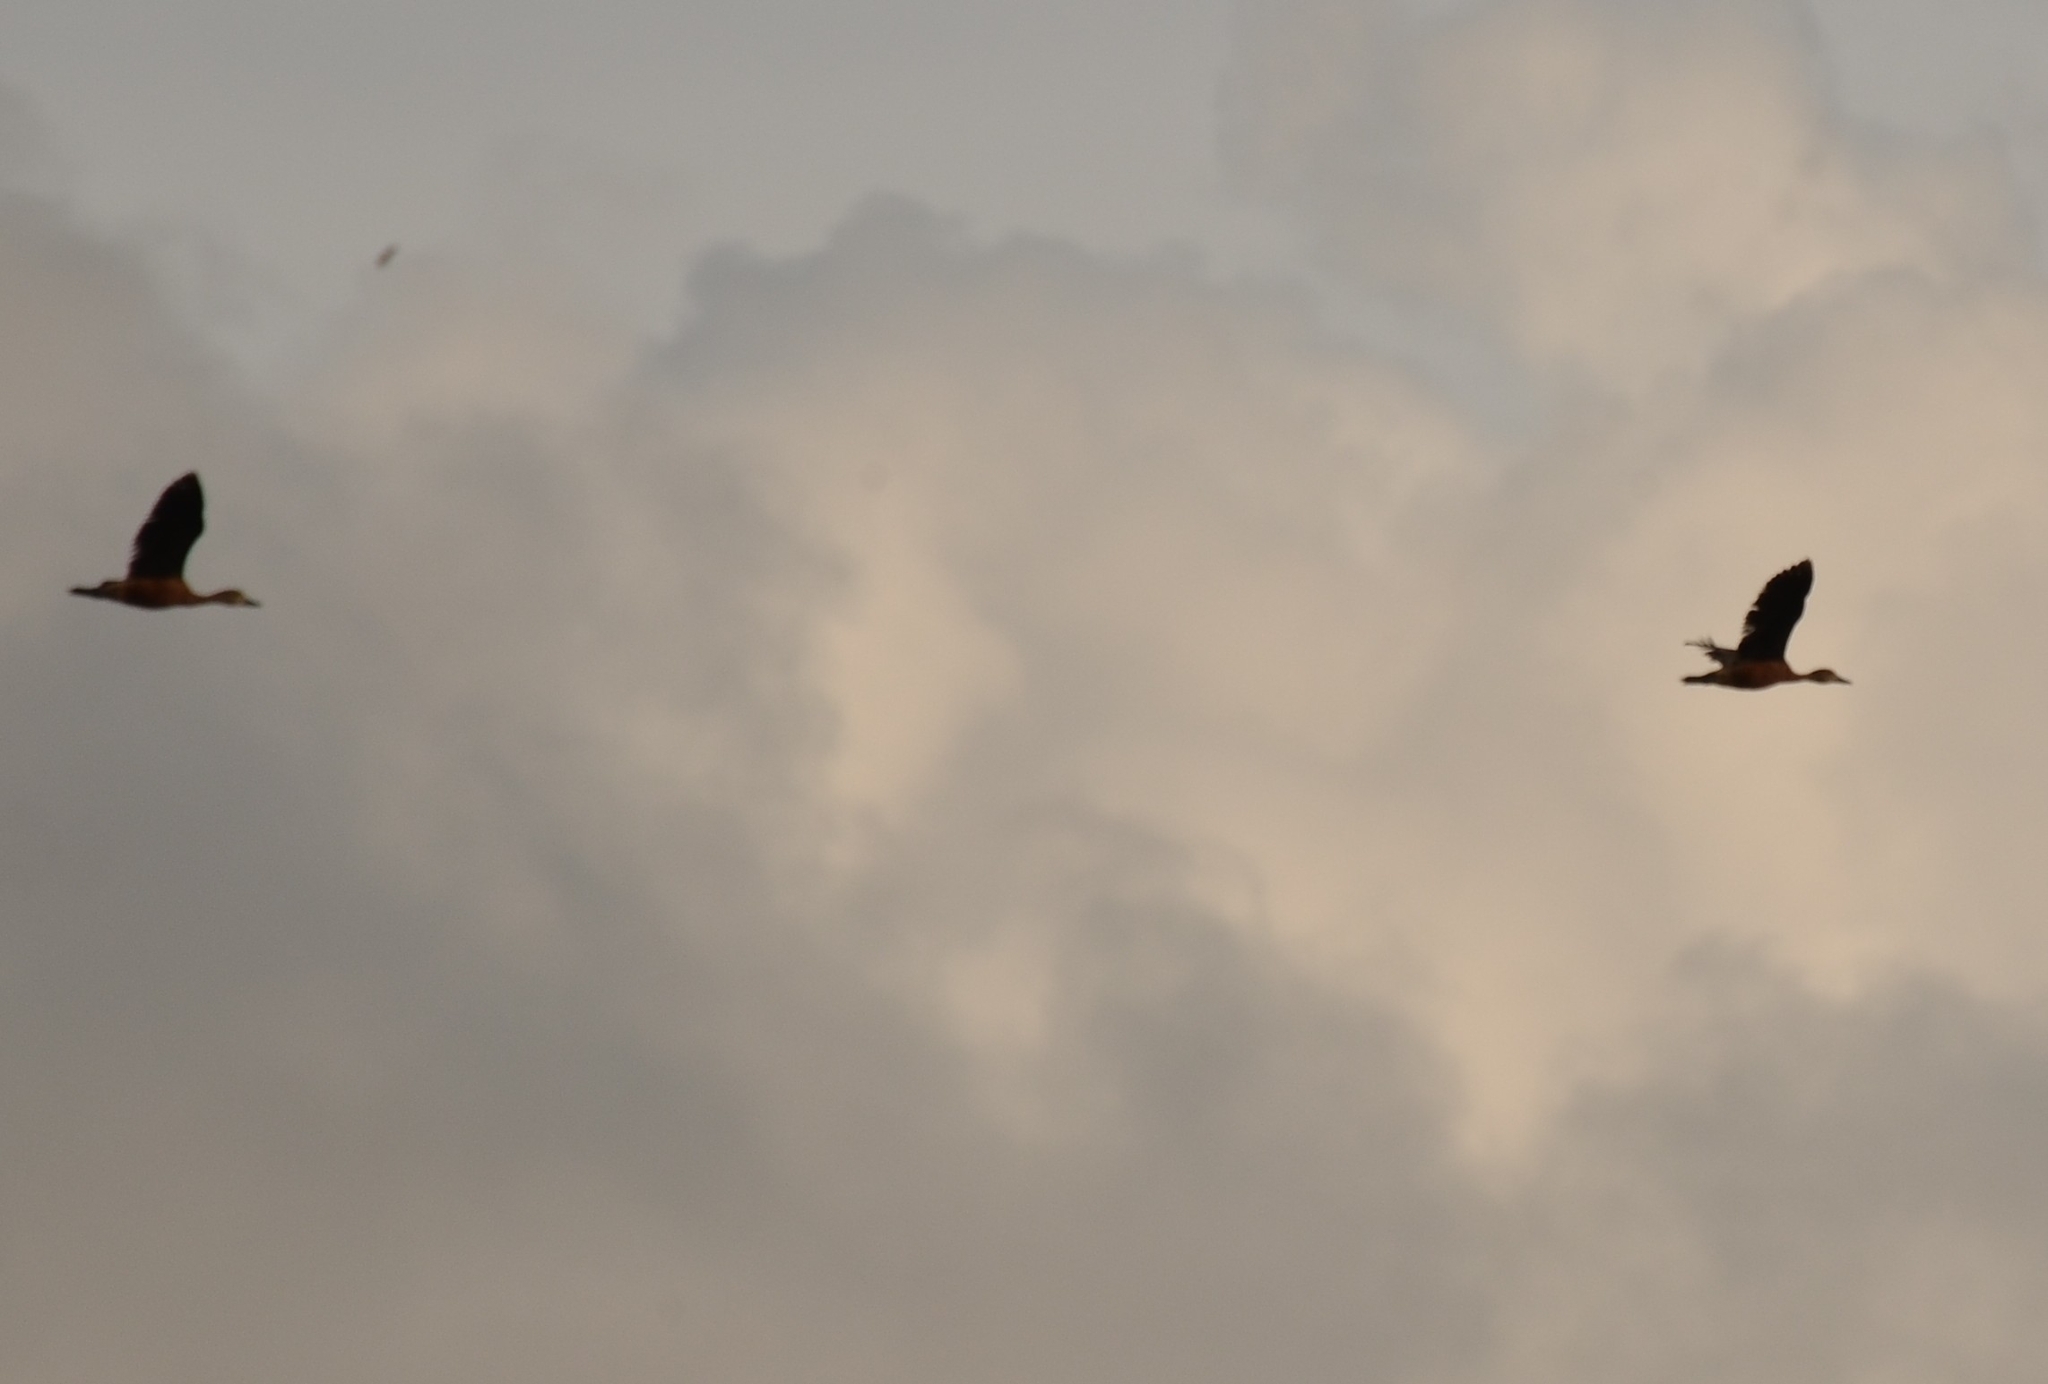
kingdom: Animalia
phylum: Chordata
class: Aves
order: Anseriformes
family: Anatidae
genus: Dendrocygna
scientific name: Dendrocygna javanica
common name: Lesser whistling-duck
